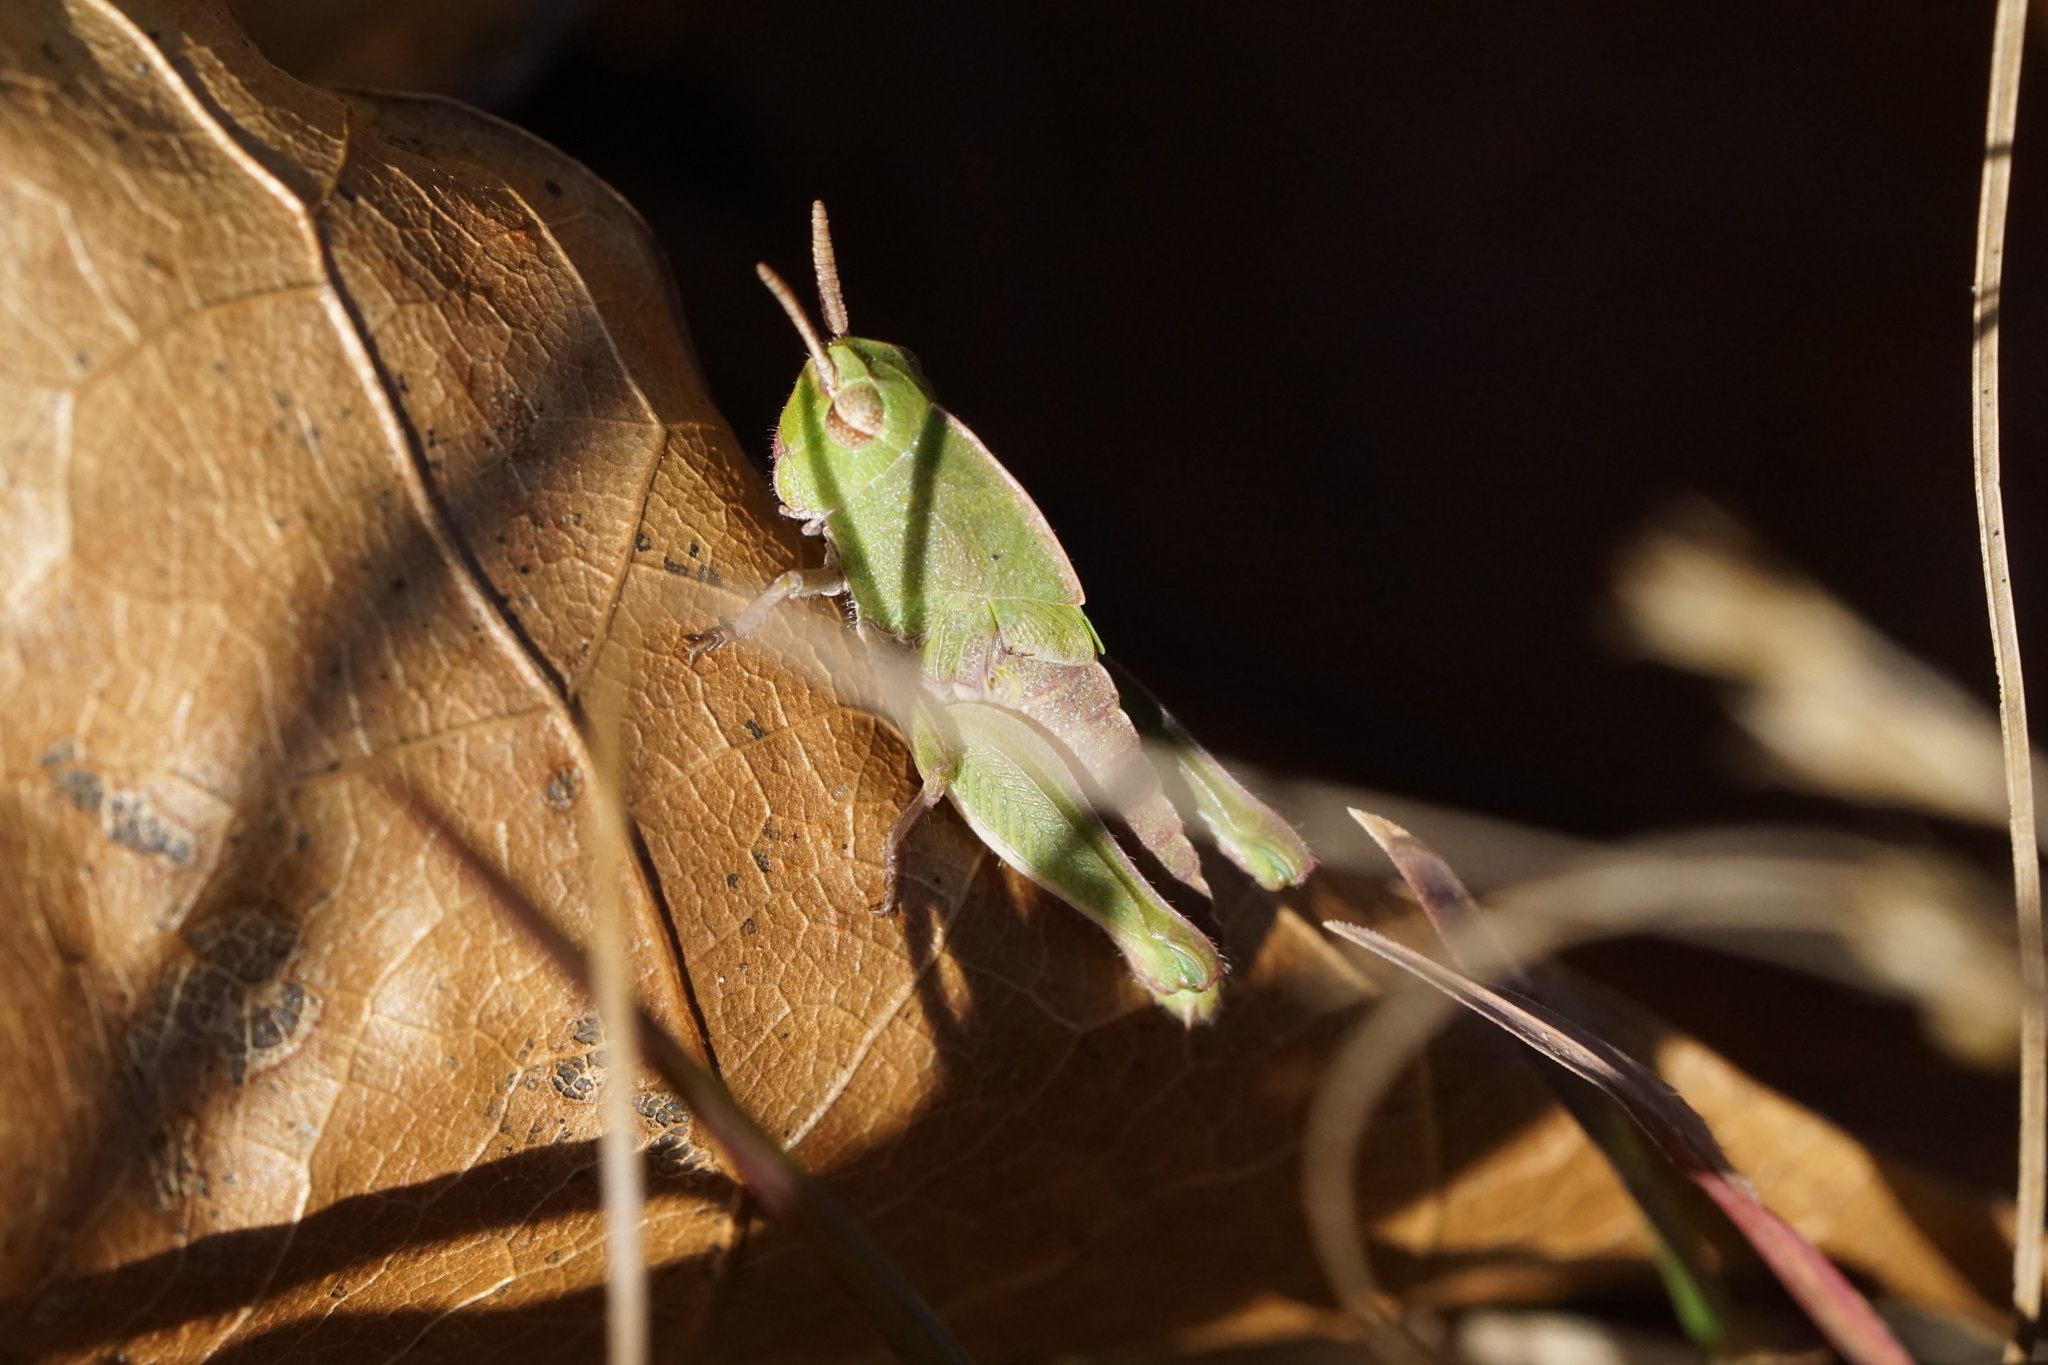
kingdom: Animalia
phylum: Arthropoda
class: Insecta
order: Orthoptera
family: Acrididae
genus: Chortophaga
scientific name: Chortophaga viridifasciata
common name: Green-striped grasshopper
